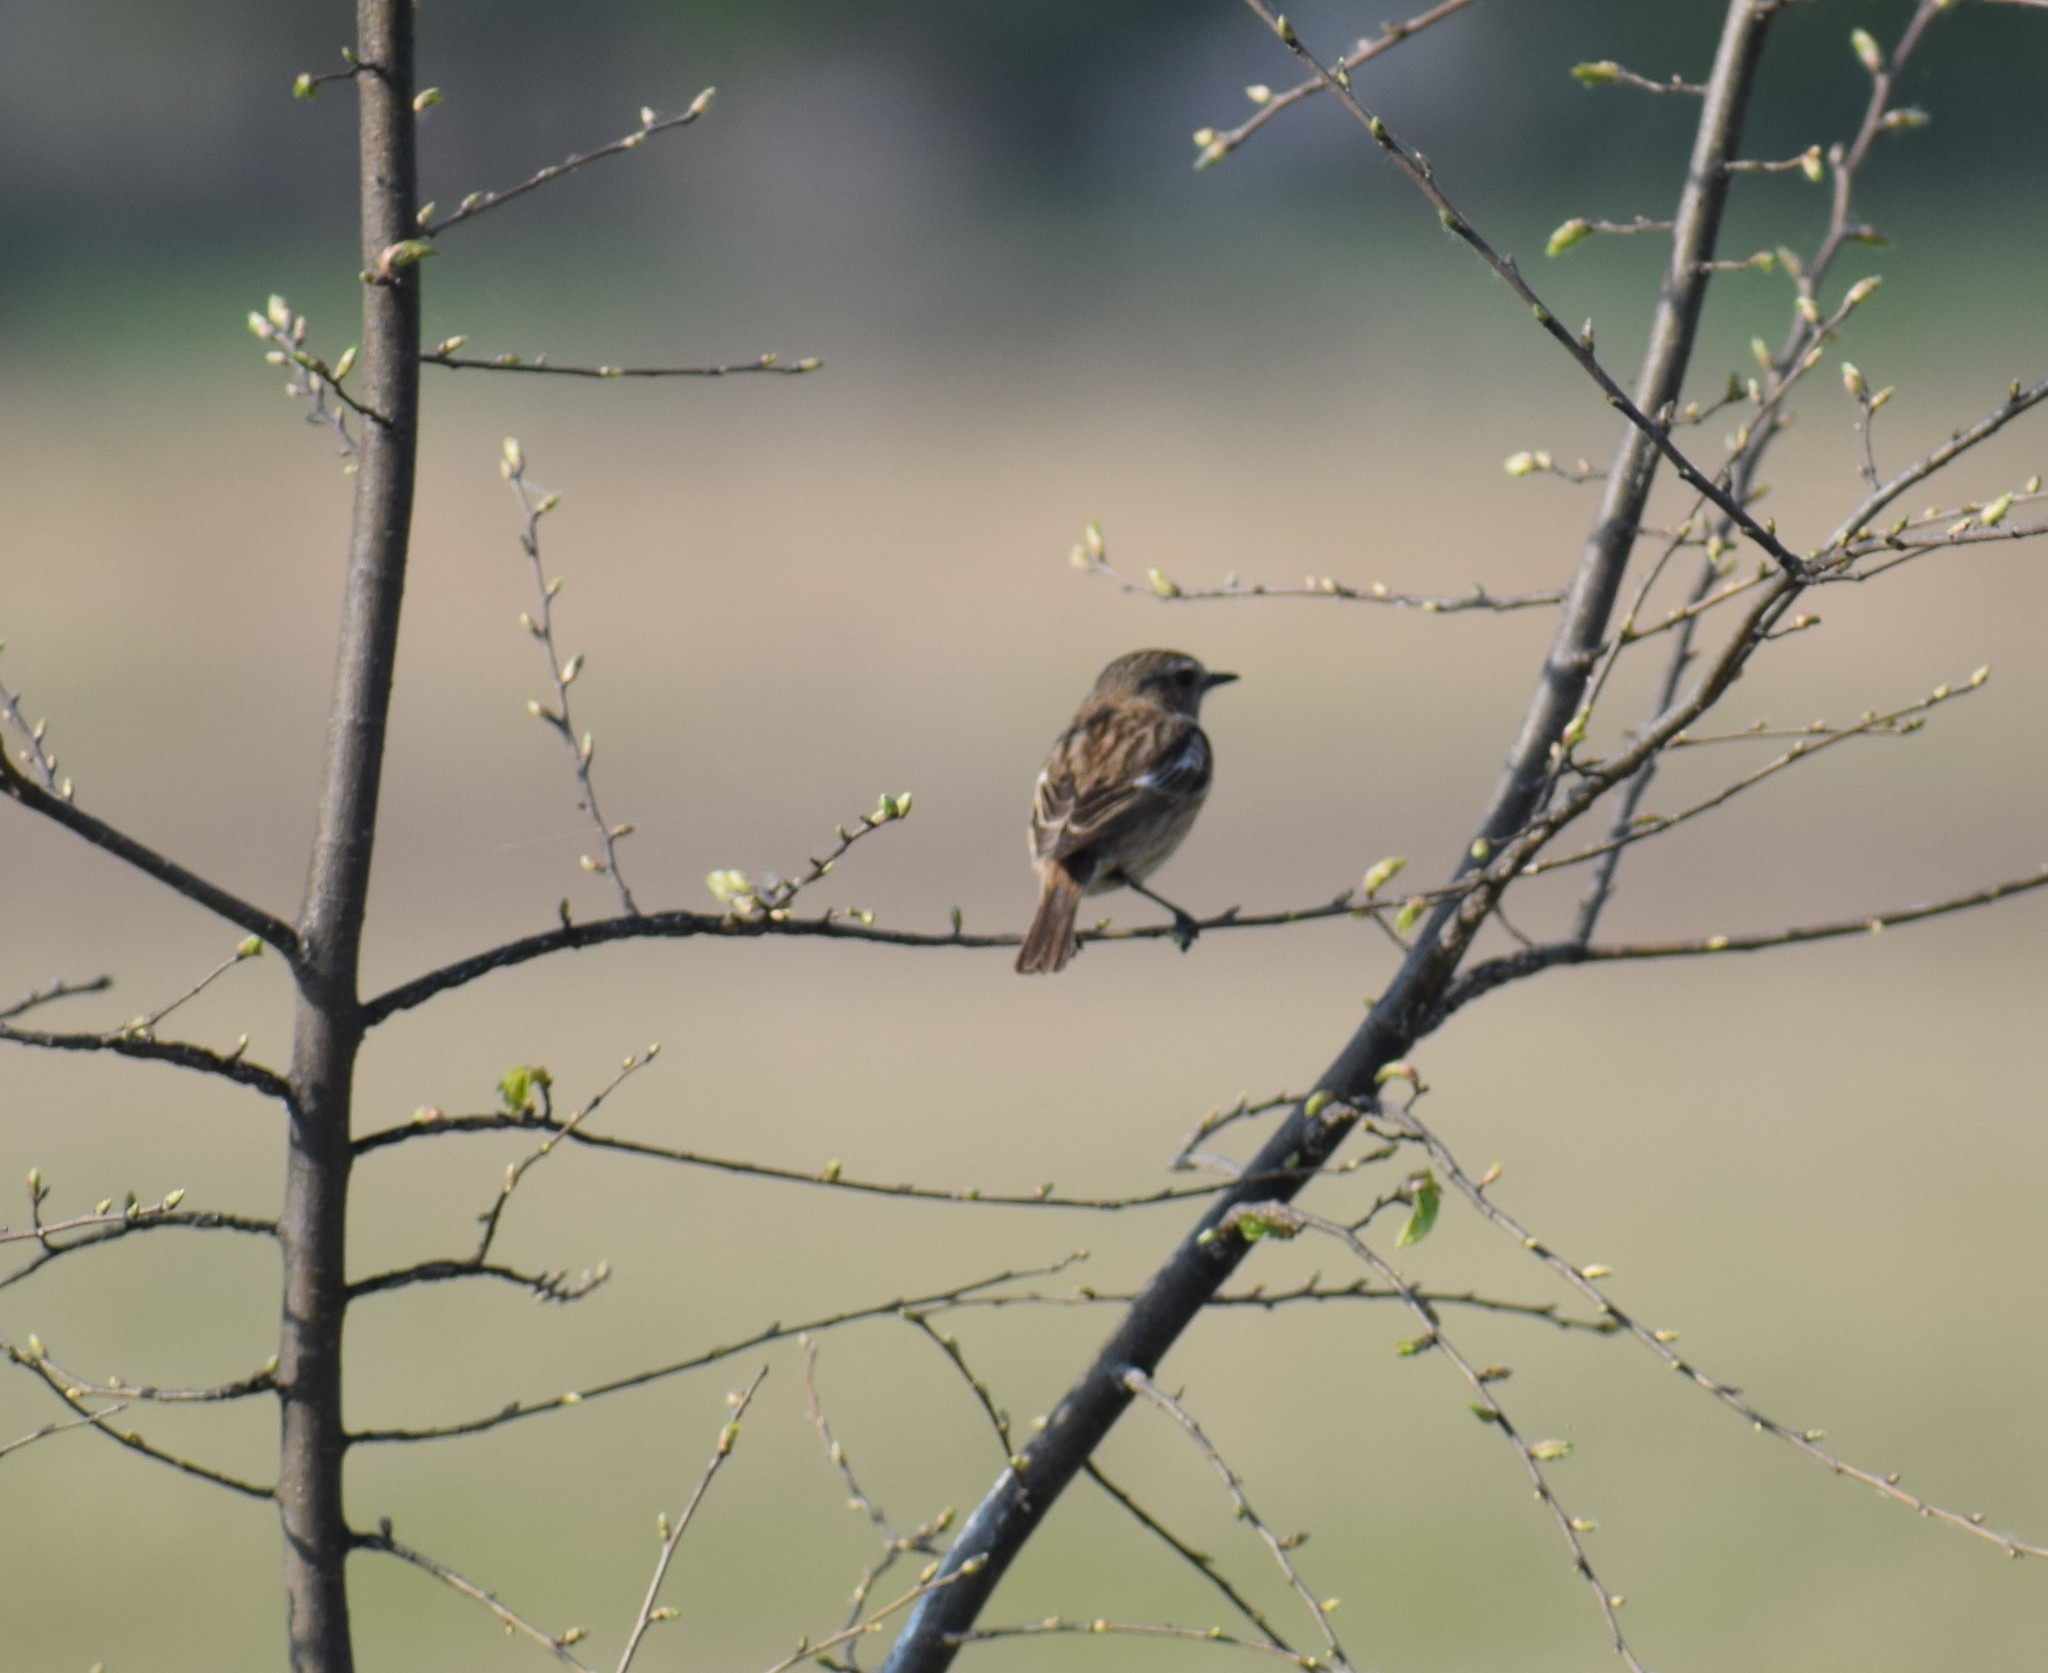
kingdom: Animalia
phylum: Chordata
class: Aves
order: Passeriformes
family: Muscicapidae
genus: Saxicola
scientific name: Saxicola rubicola
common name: European stonechat
